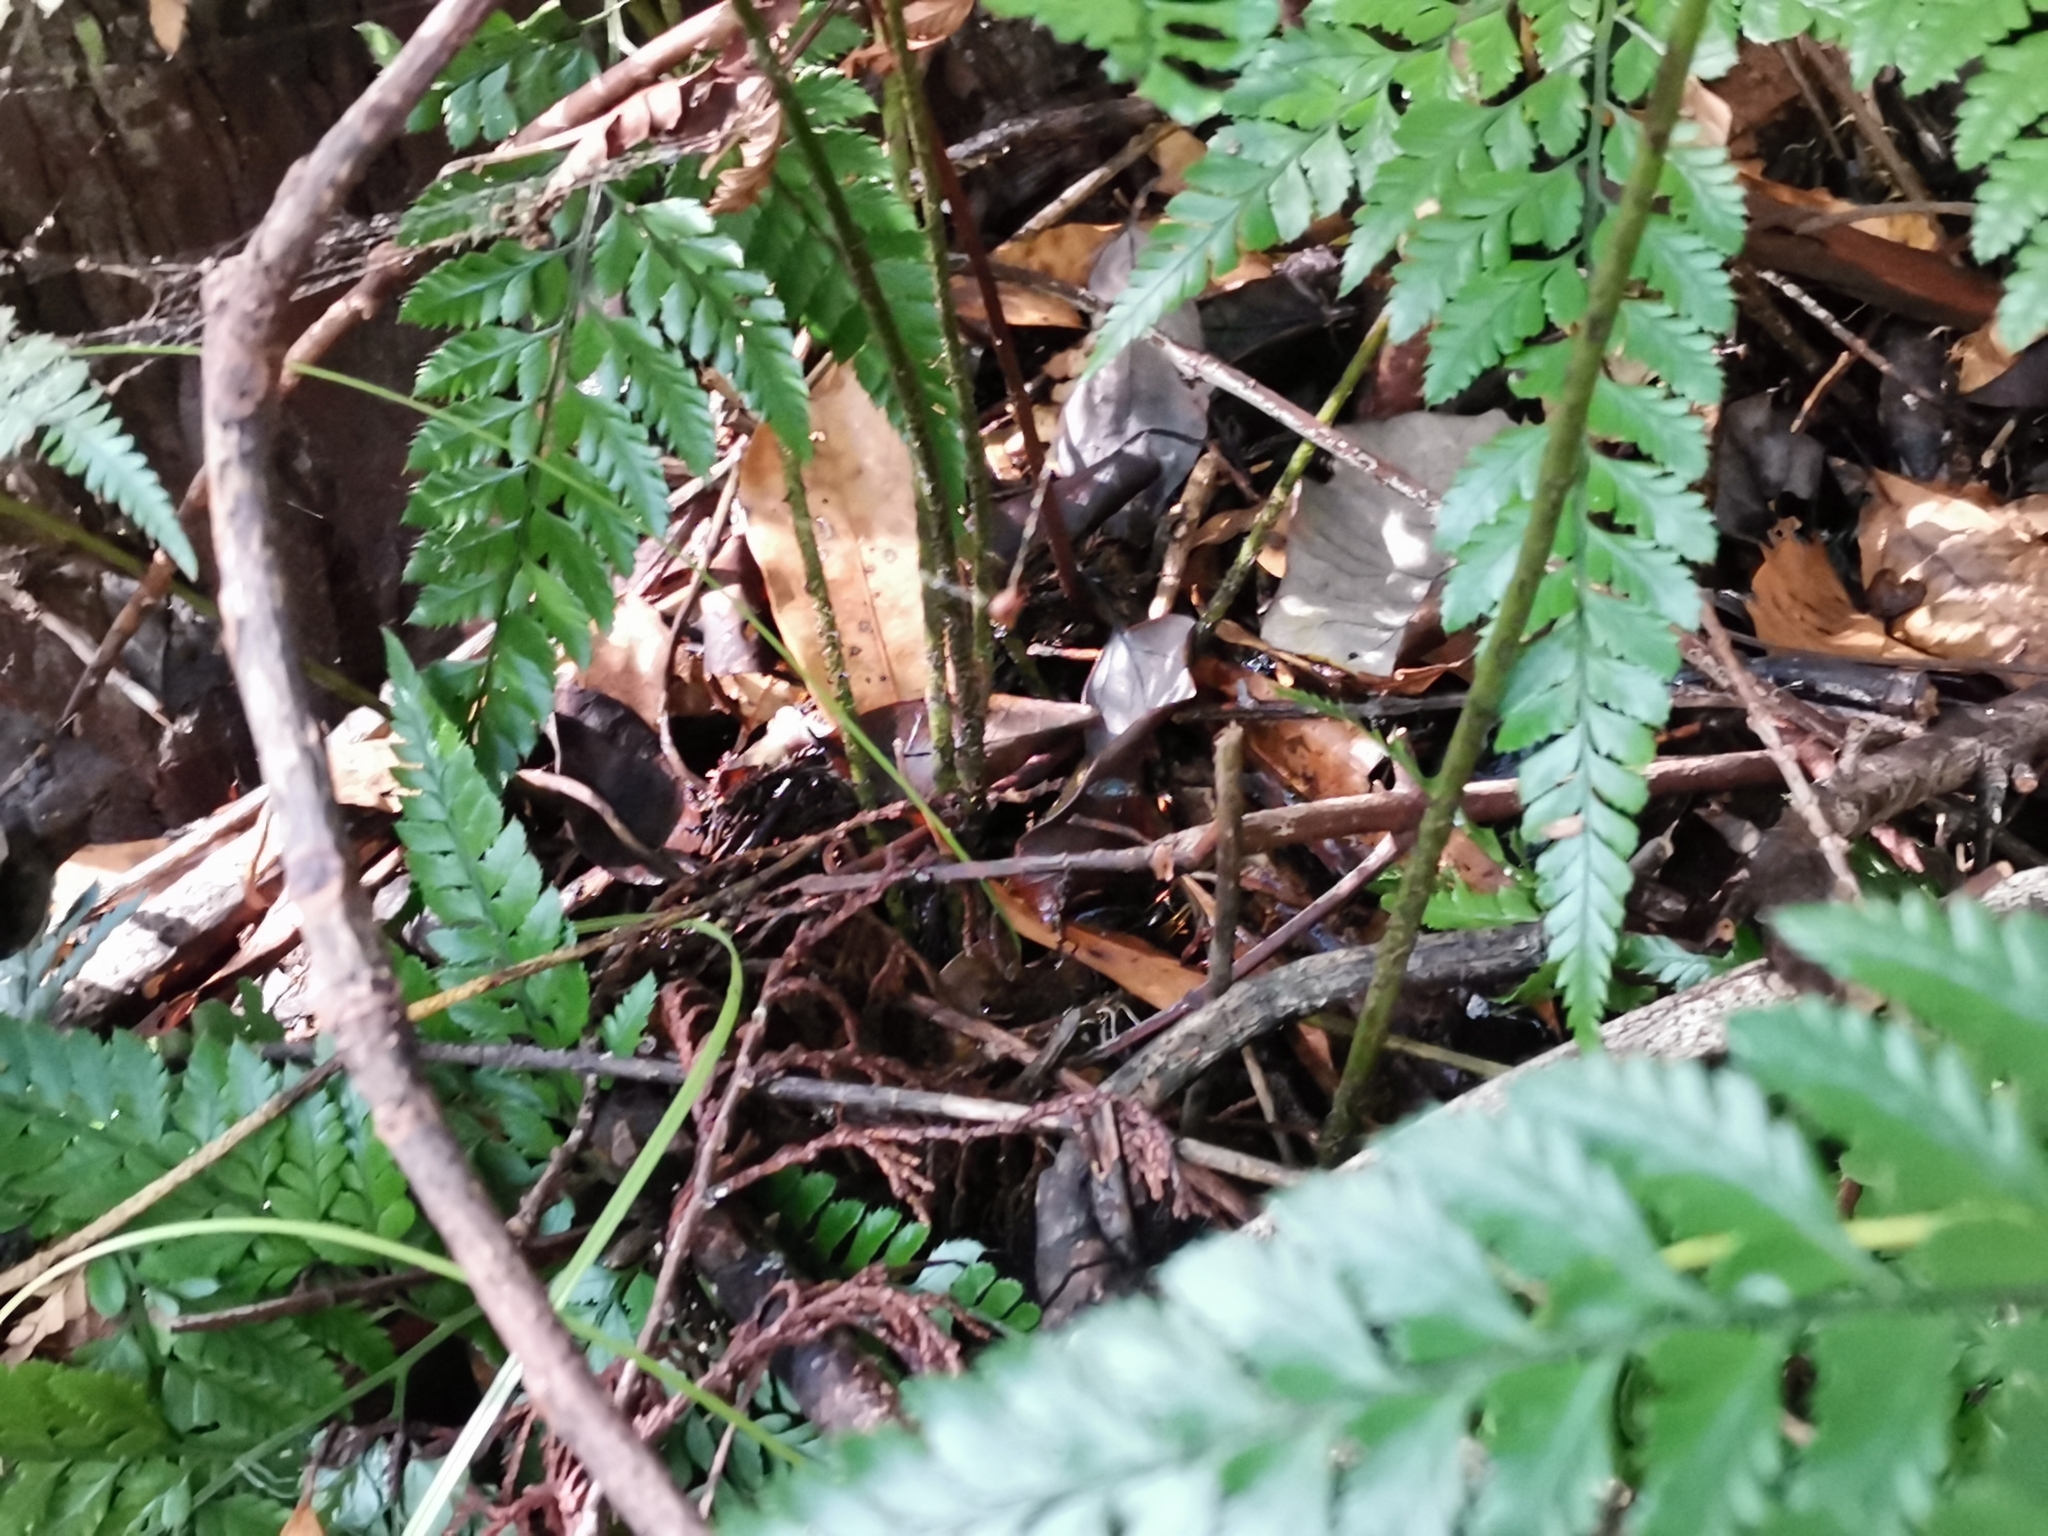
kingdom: Plantae
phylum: Tracheophyta
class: Polypodiopsida
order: Polypodiales
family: Dryopteridaceae
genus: Arachniodes
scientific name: Arachniodes cornu-cervi
